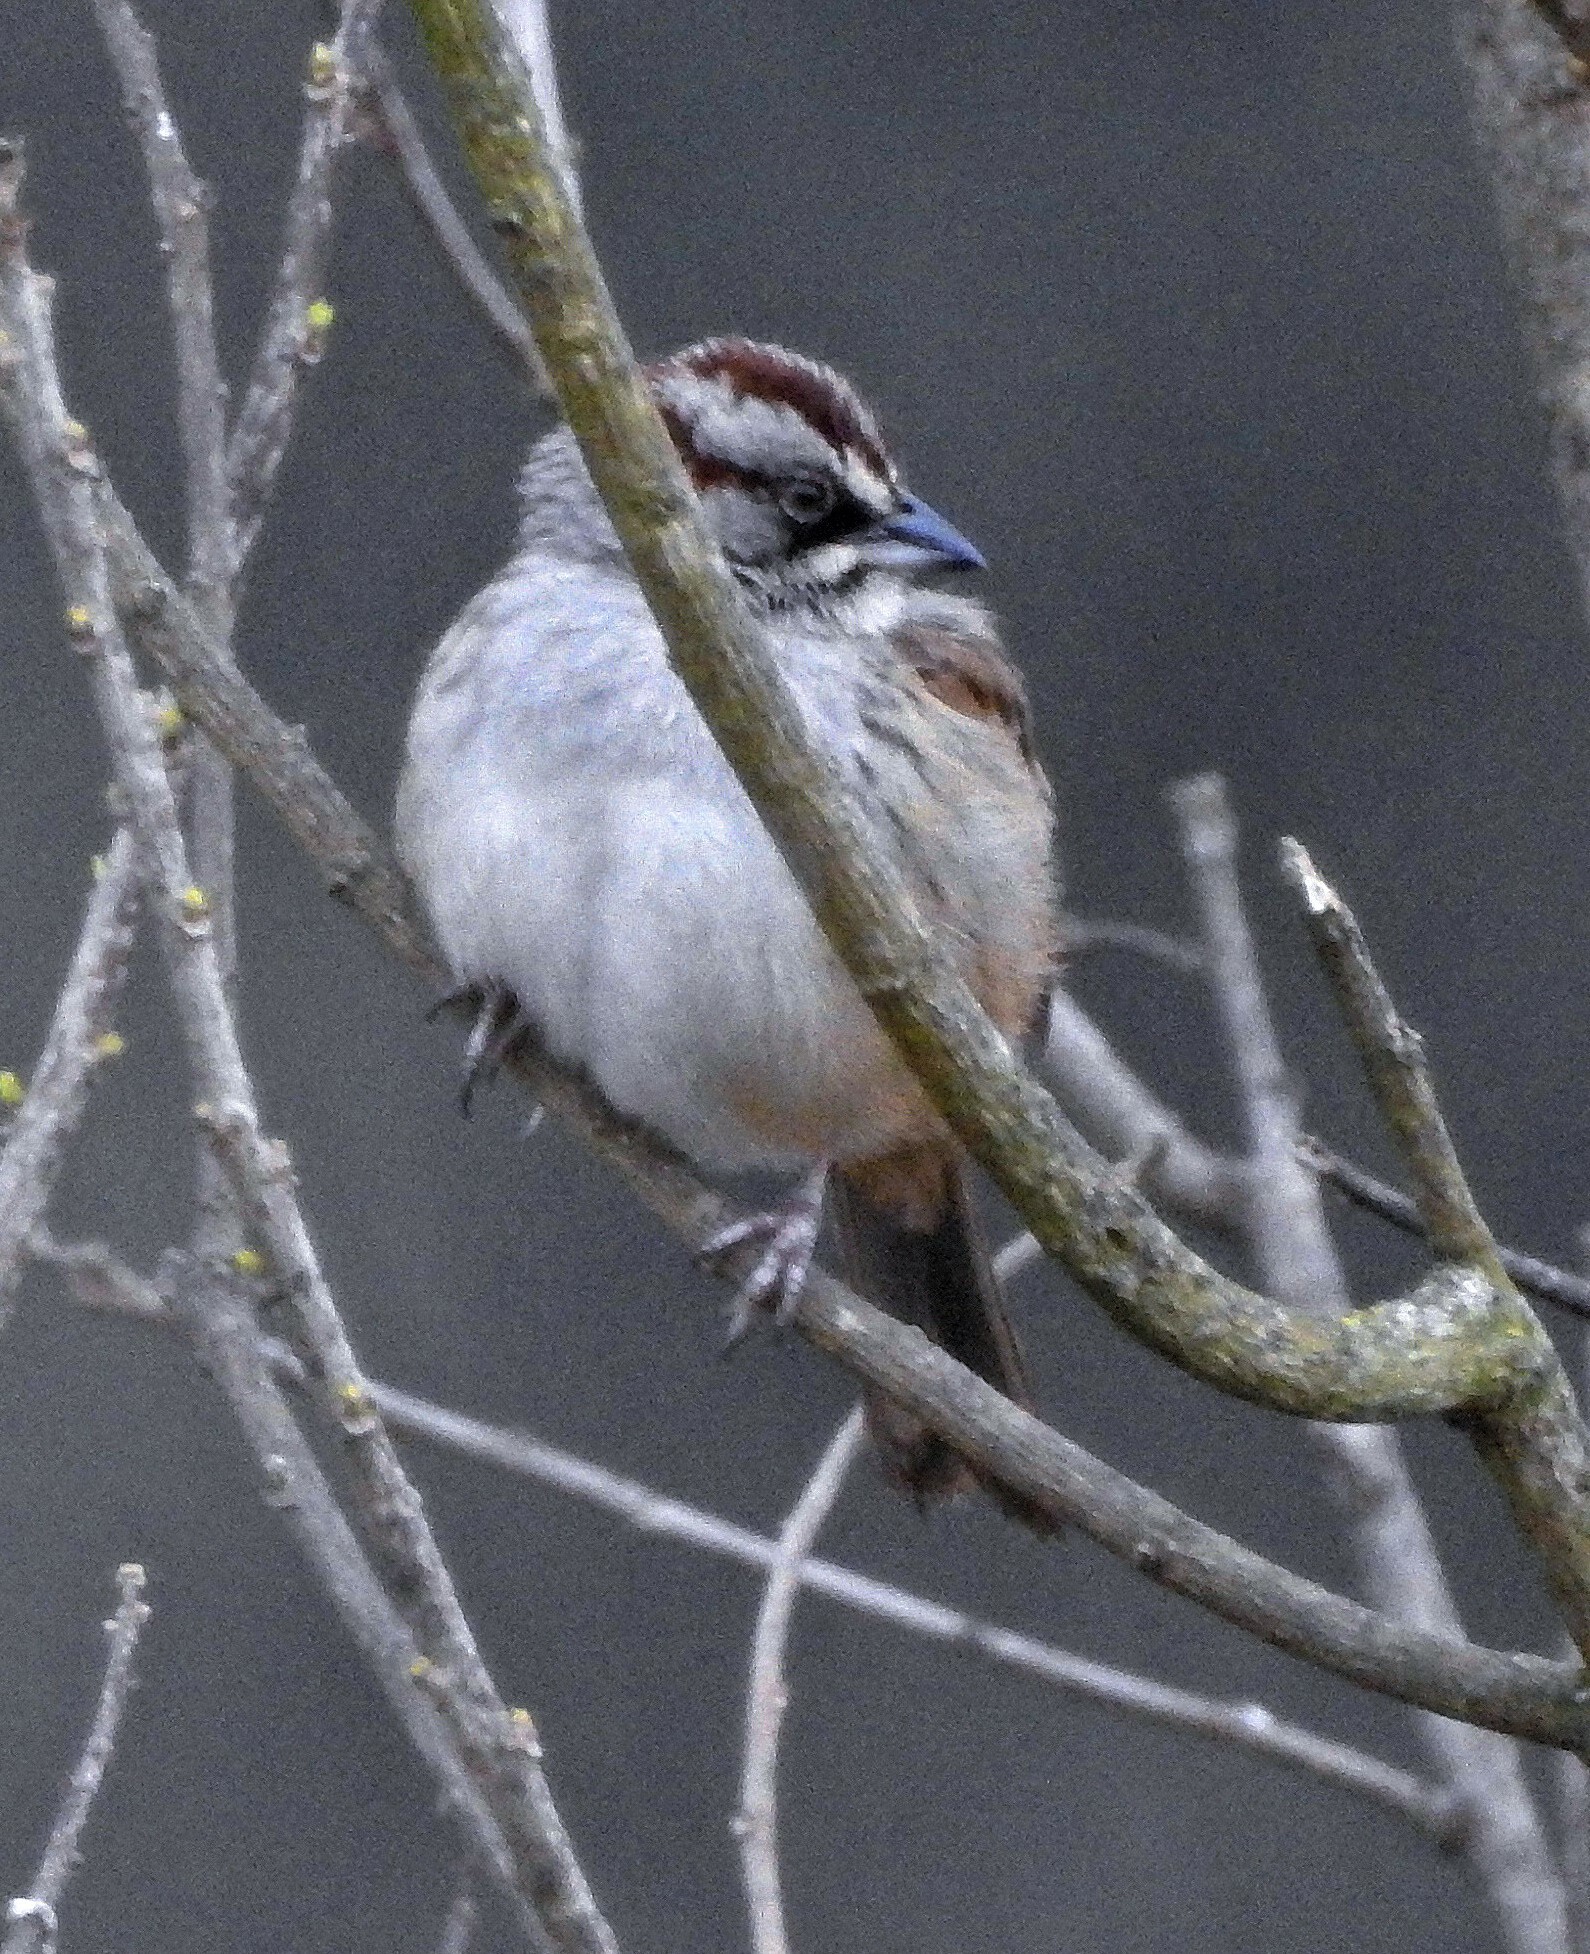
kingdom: Animalia
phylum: Chordata
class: Aves
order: Passeriformes
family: Passerellidae
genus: Rhynchospiza
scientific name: Rhynchospiza dabbenei
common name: Yungas sparrow
